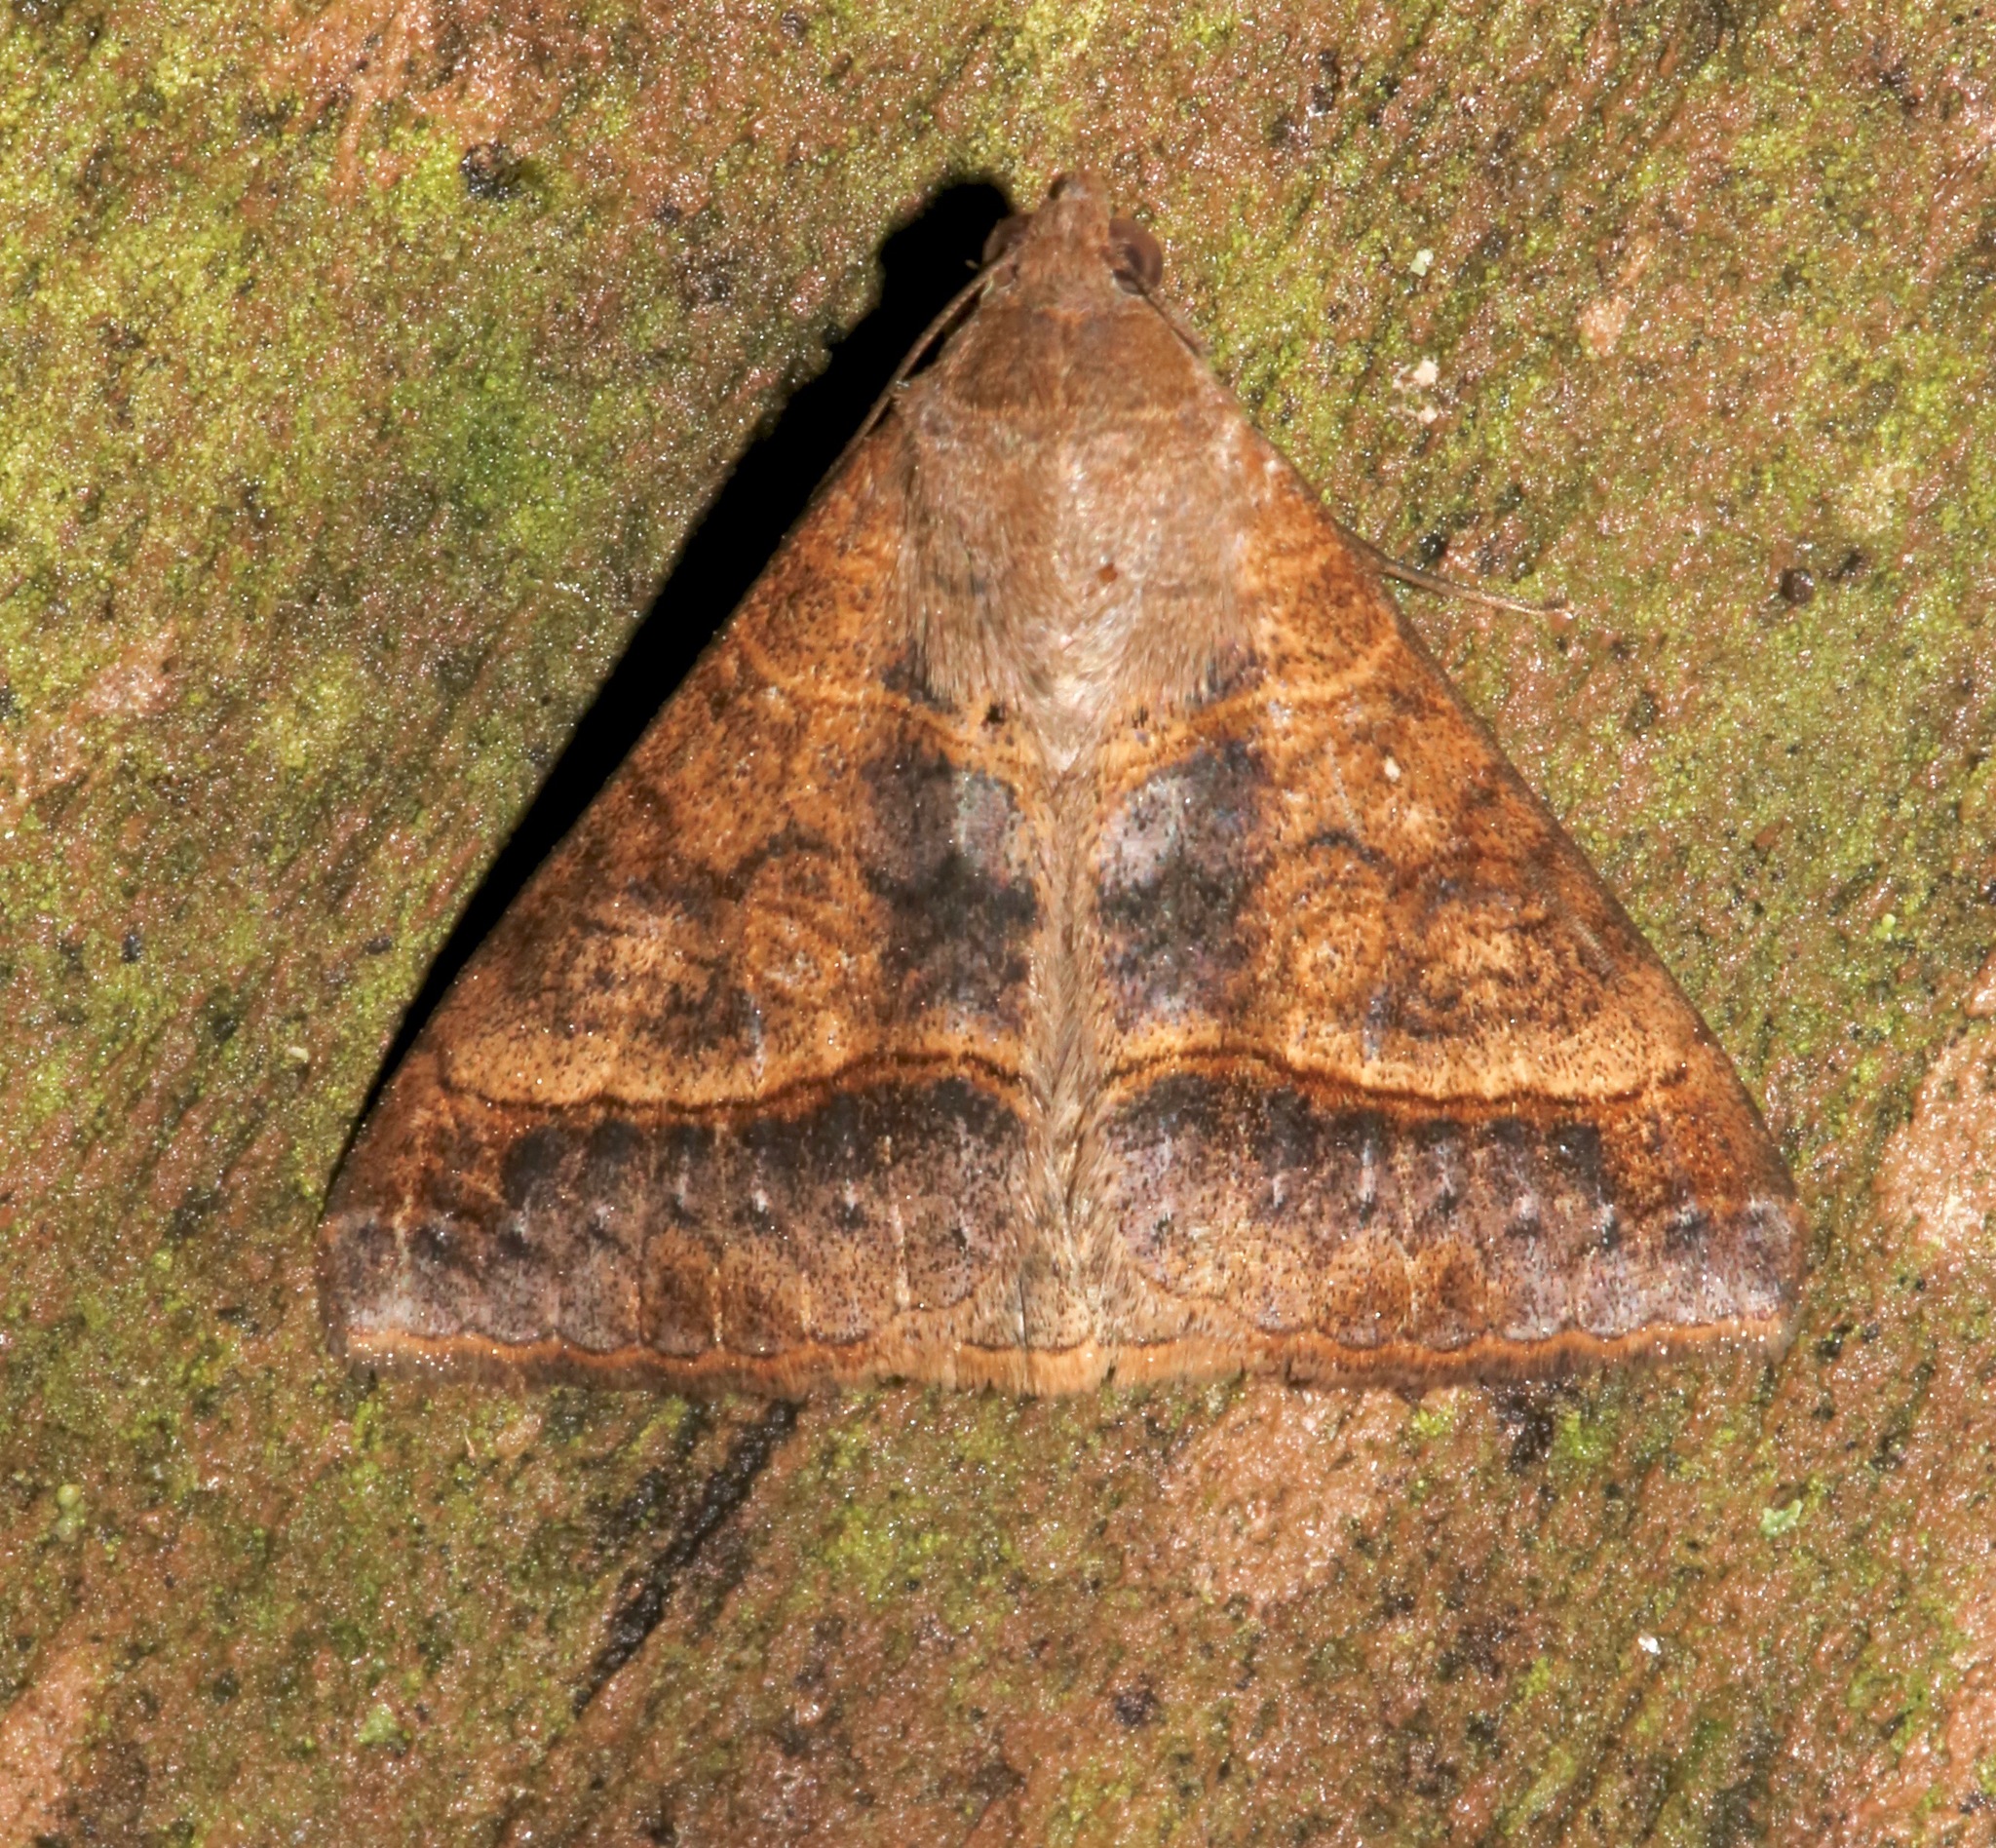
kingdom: Animalia
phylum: Arthropoda
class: Insecta
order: Lepidoptera
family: Erebidae
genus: Mocis
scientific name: Mocis latipes
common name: Striped grass looper
